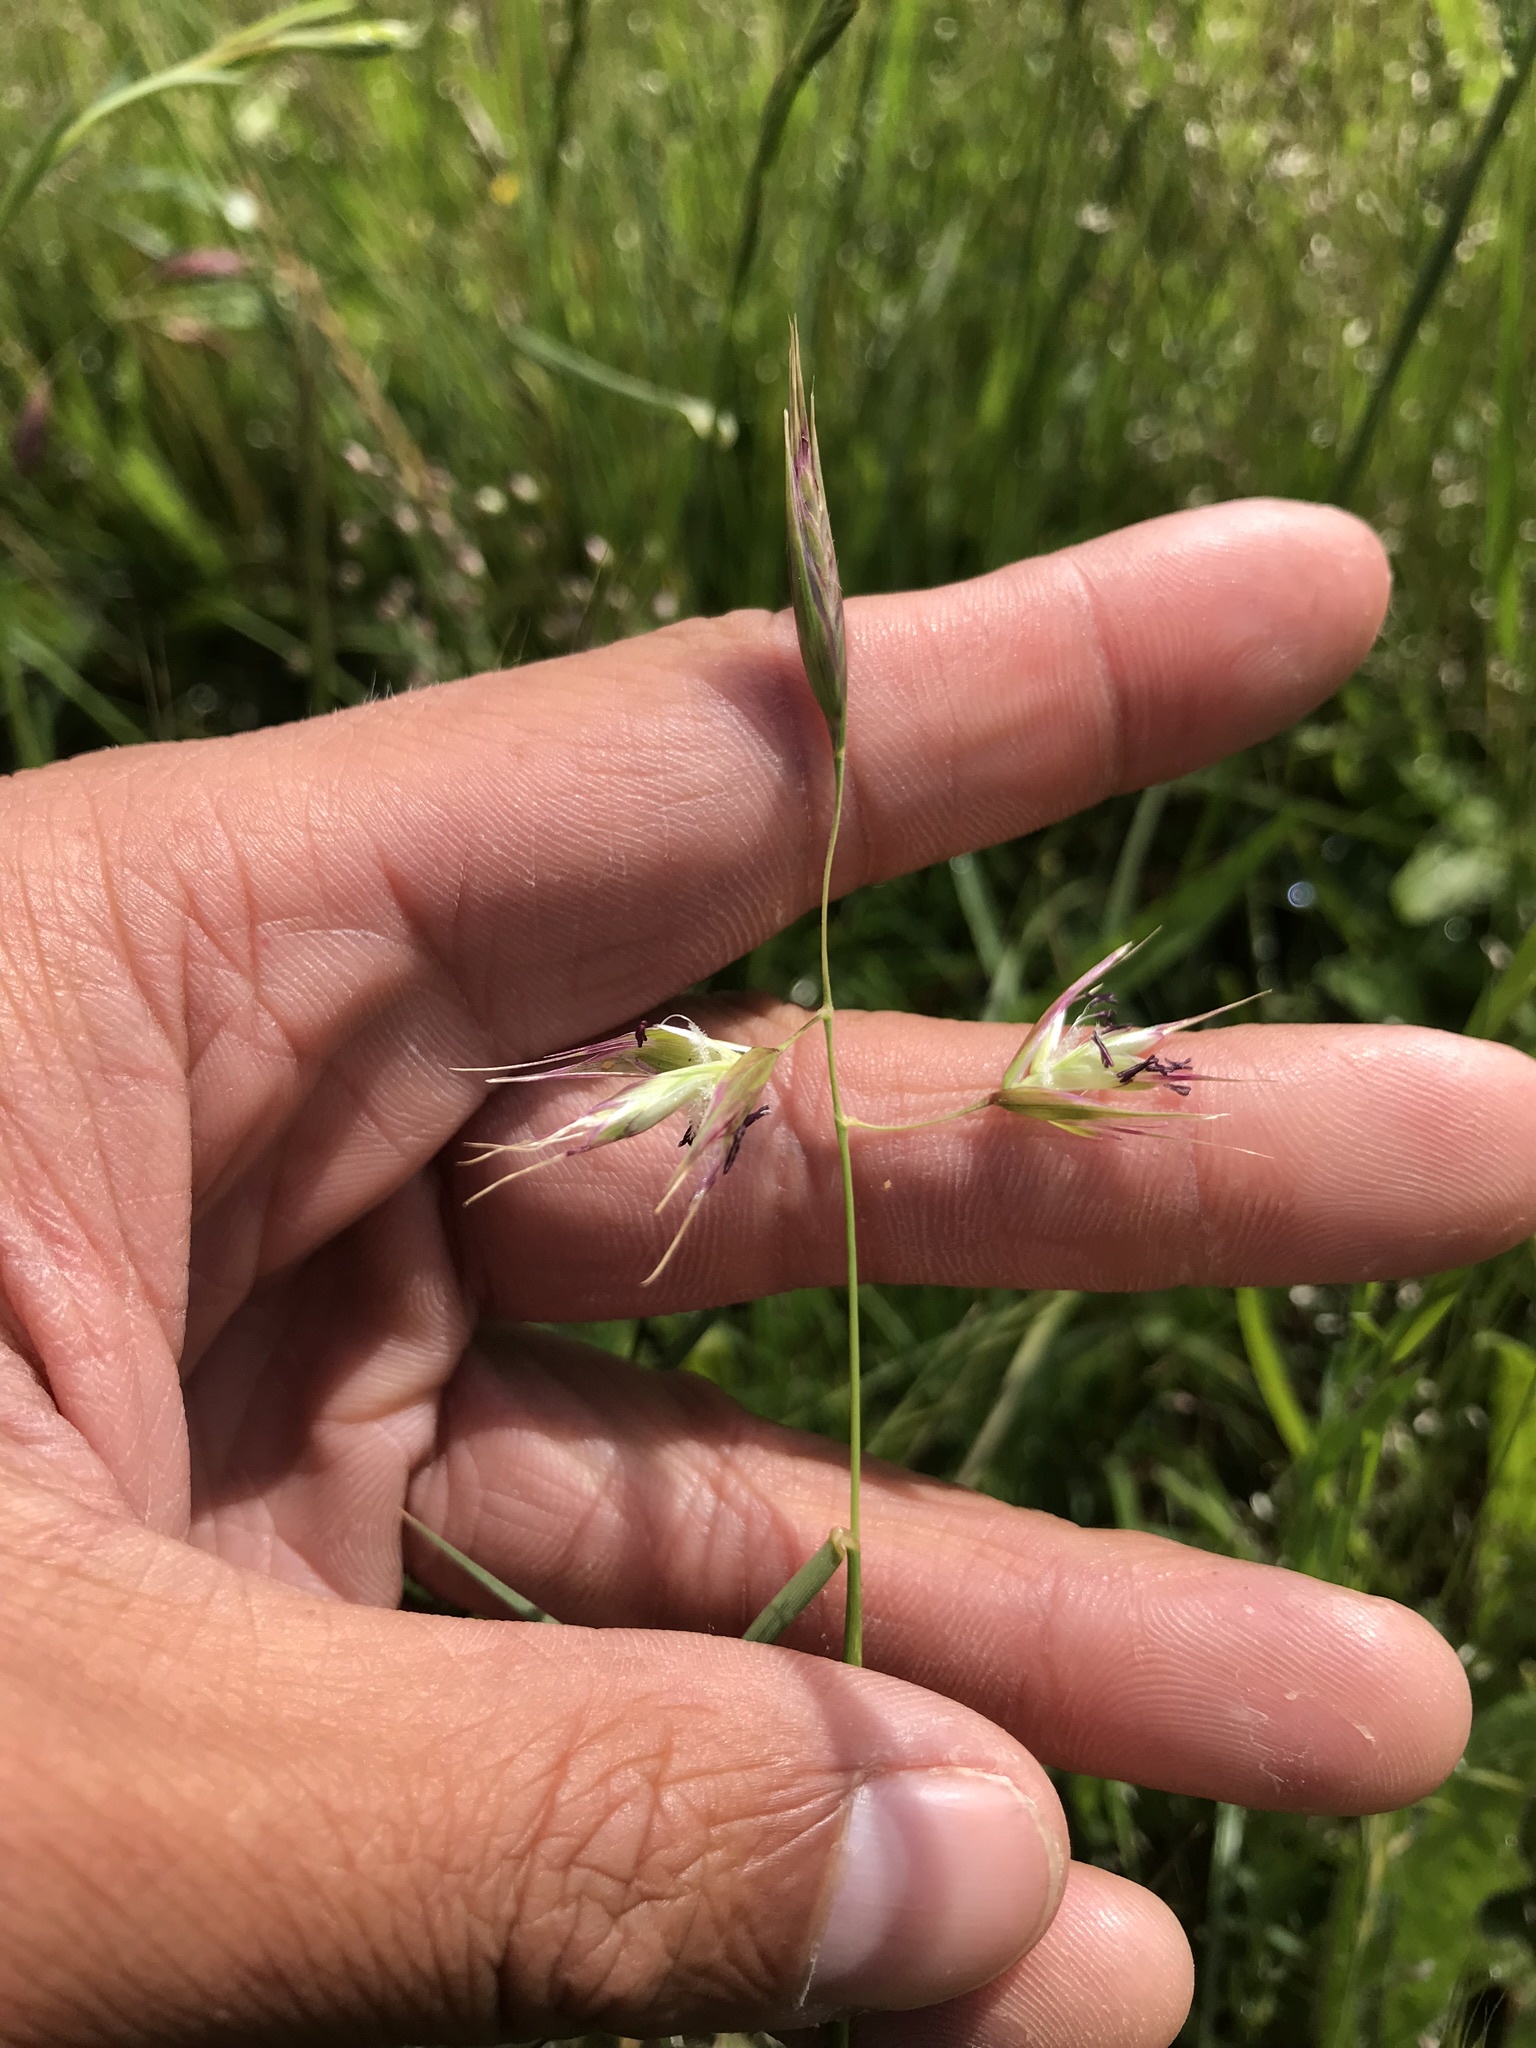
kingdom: Plantae
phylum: Tracheophyta
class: Liliopsida
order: Poales
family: Poaceae
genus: Danthonia
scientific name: Danthonia californica
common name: California oat grass
